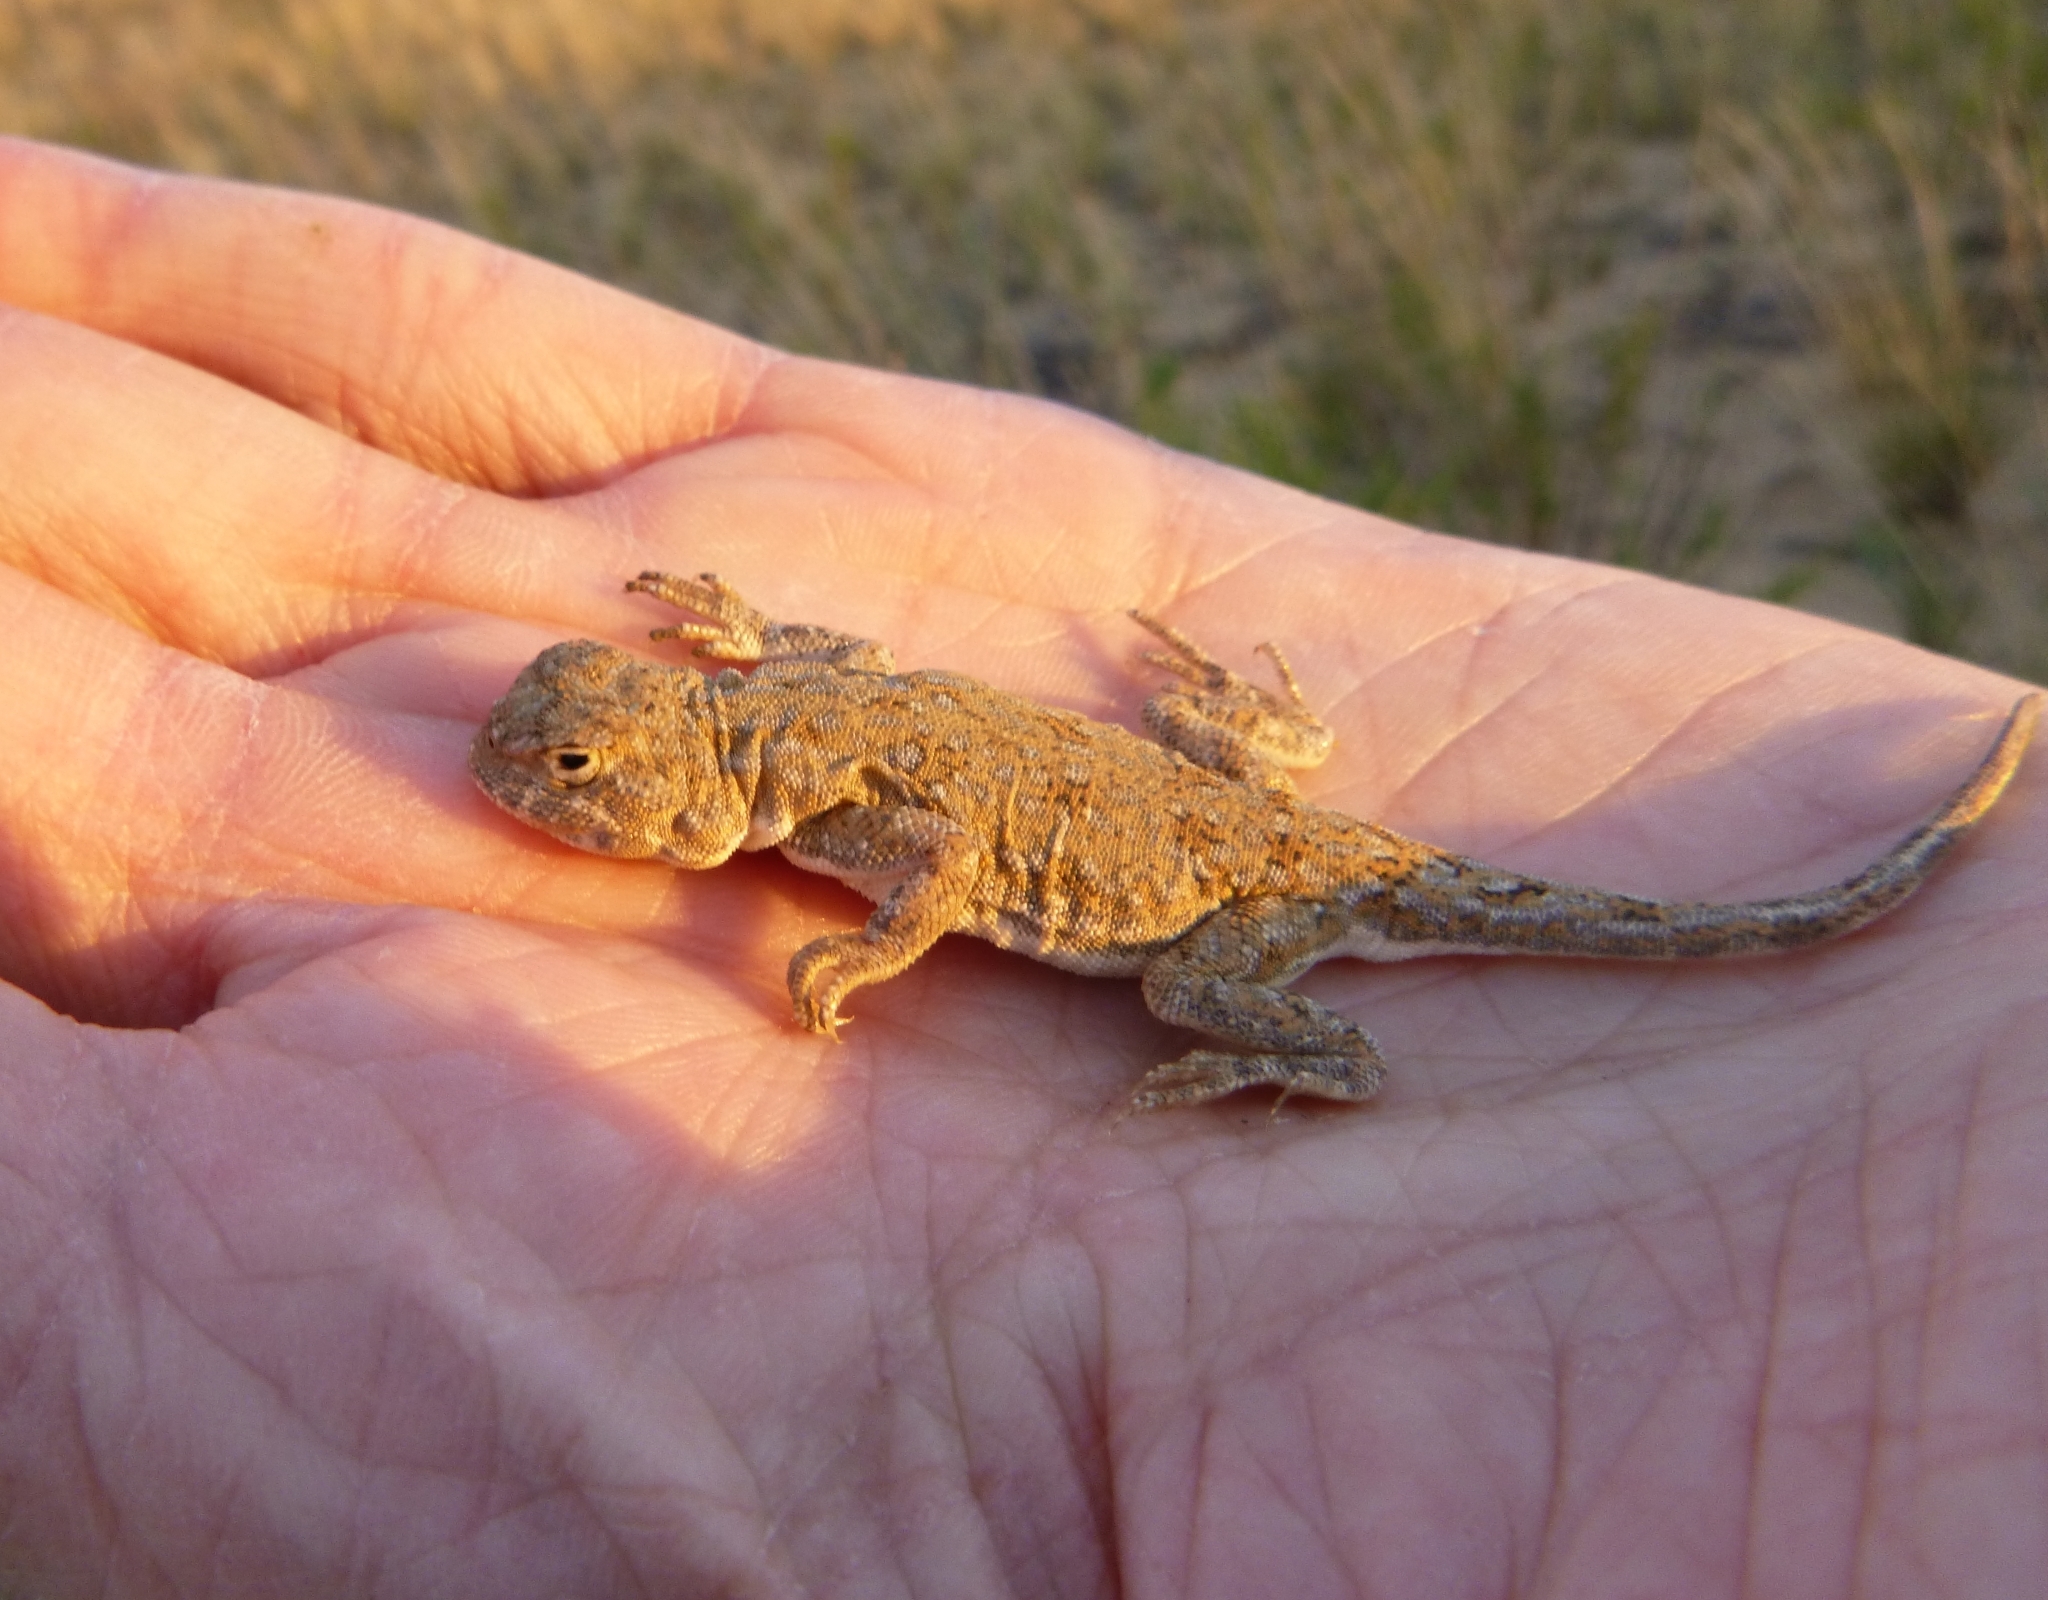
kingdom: Animalia
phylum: Chordata
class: Squamata
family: Agamidae
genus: Phrynocephalus
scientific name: Phrynocephalus guttatus
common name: Spotted toadhead agama
